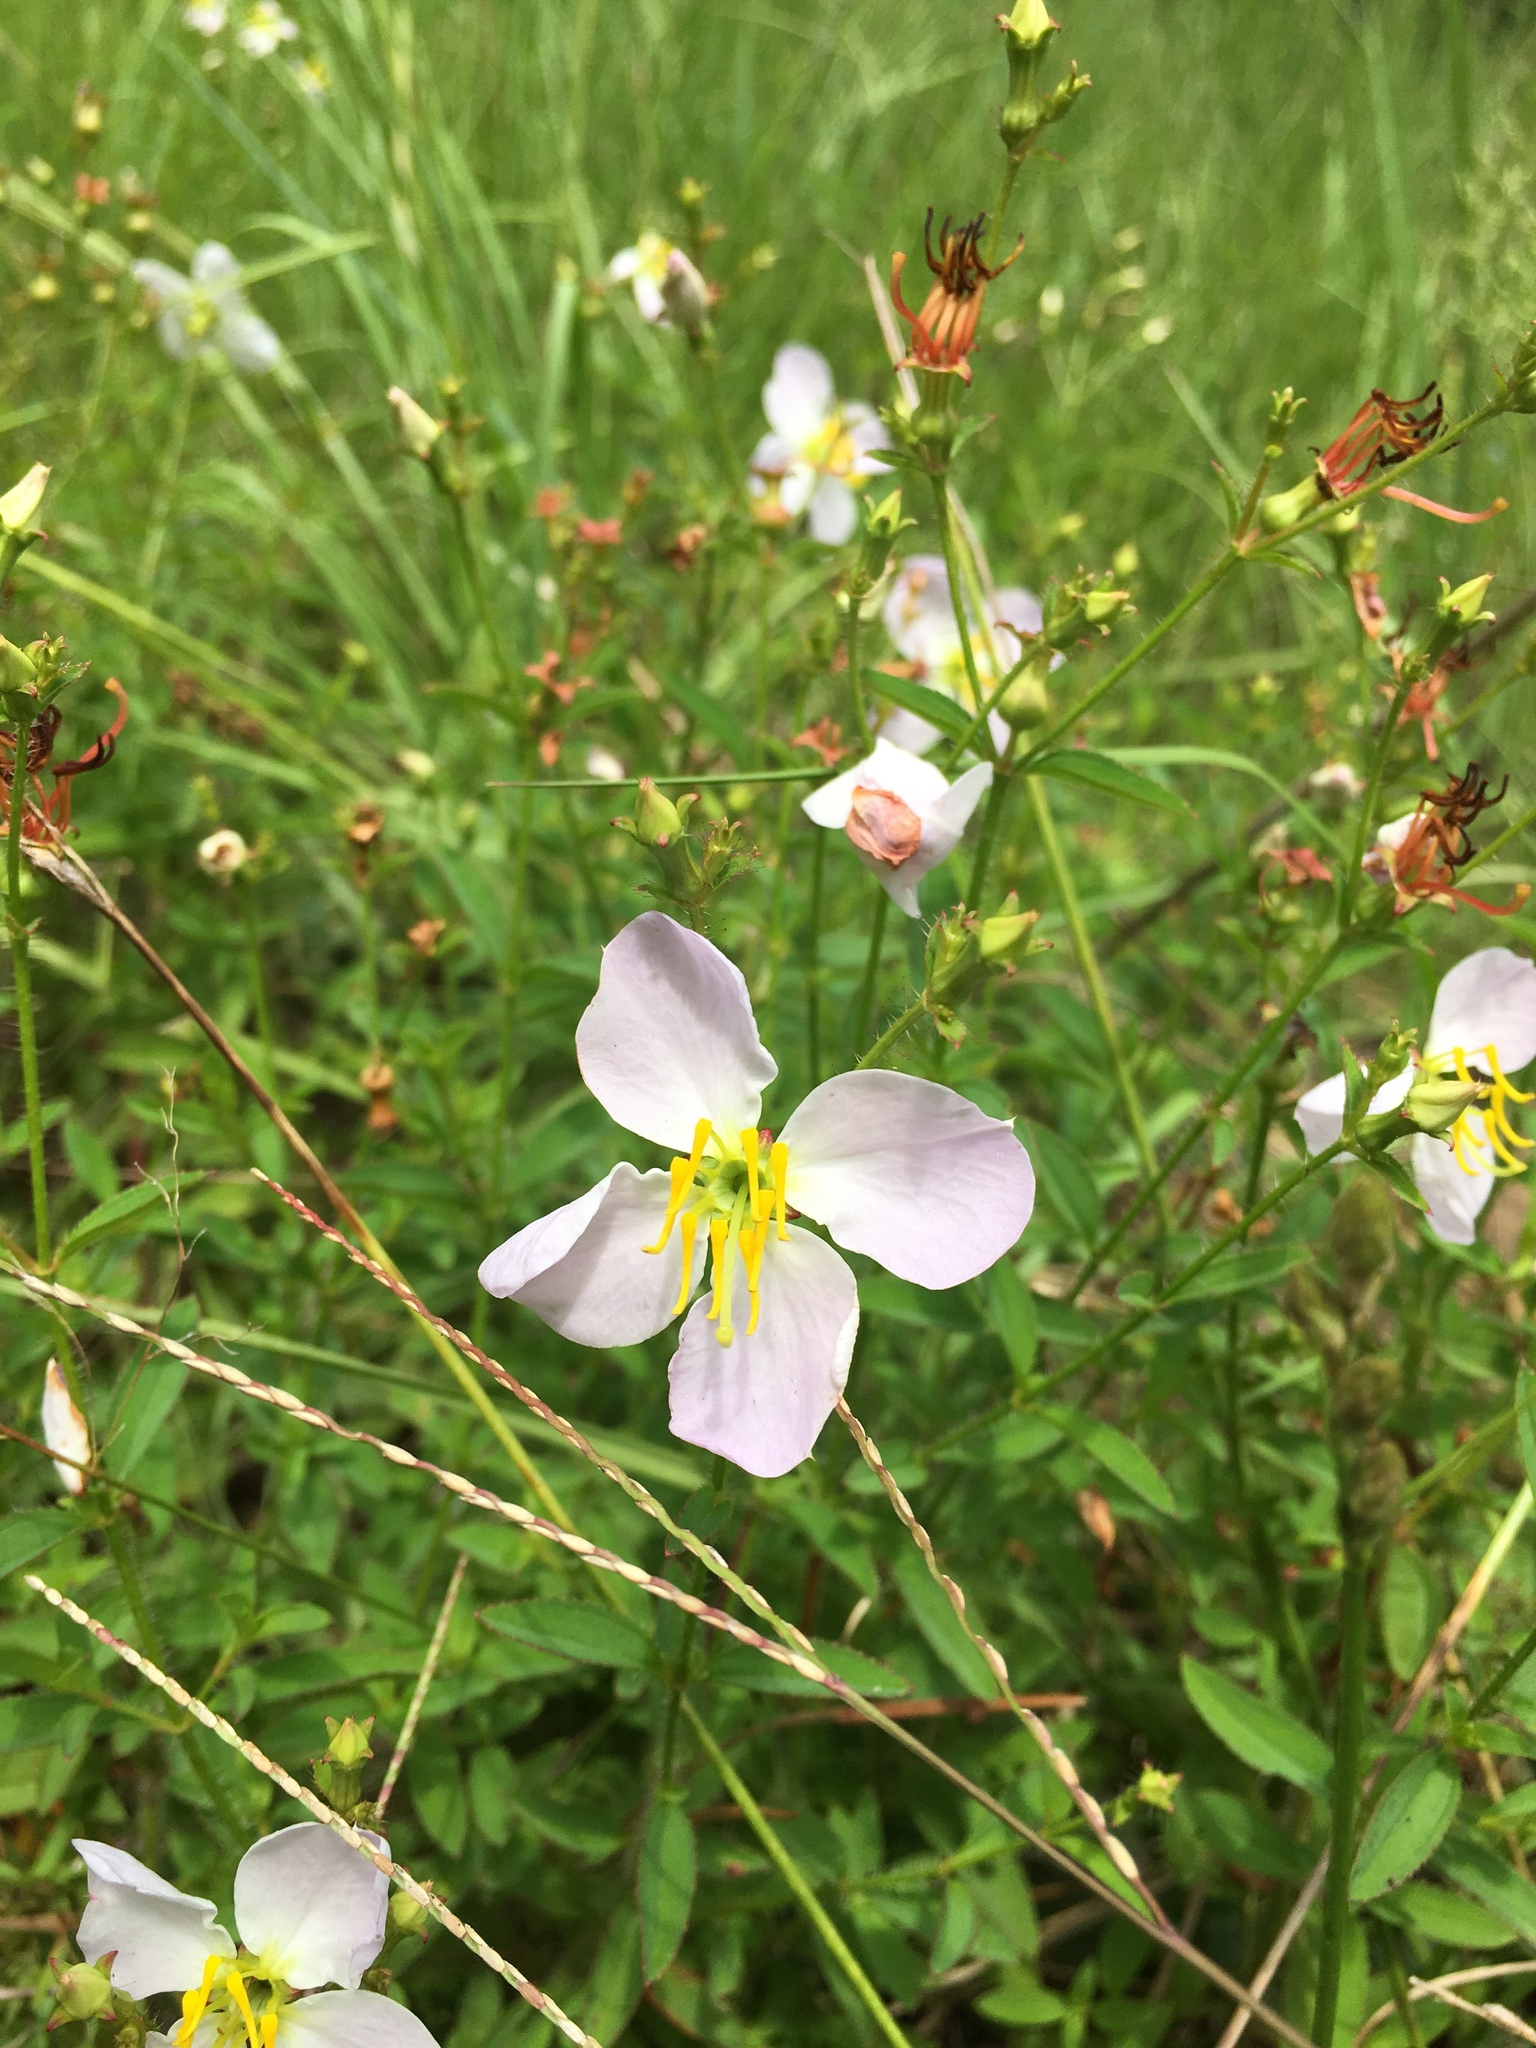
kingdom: Plantae
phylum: Tracheophyta
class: Magnoliopsida
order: Myrtales
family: Melastomataceae
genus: Rhexia
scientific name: Rhexia mariana
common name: Dull meadow-pitcher
